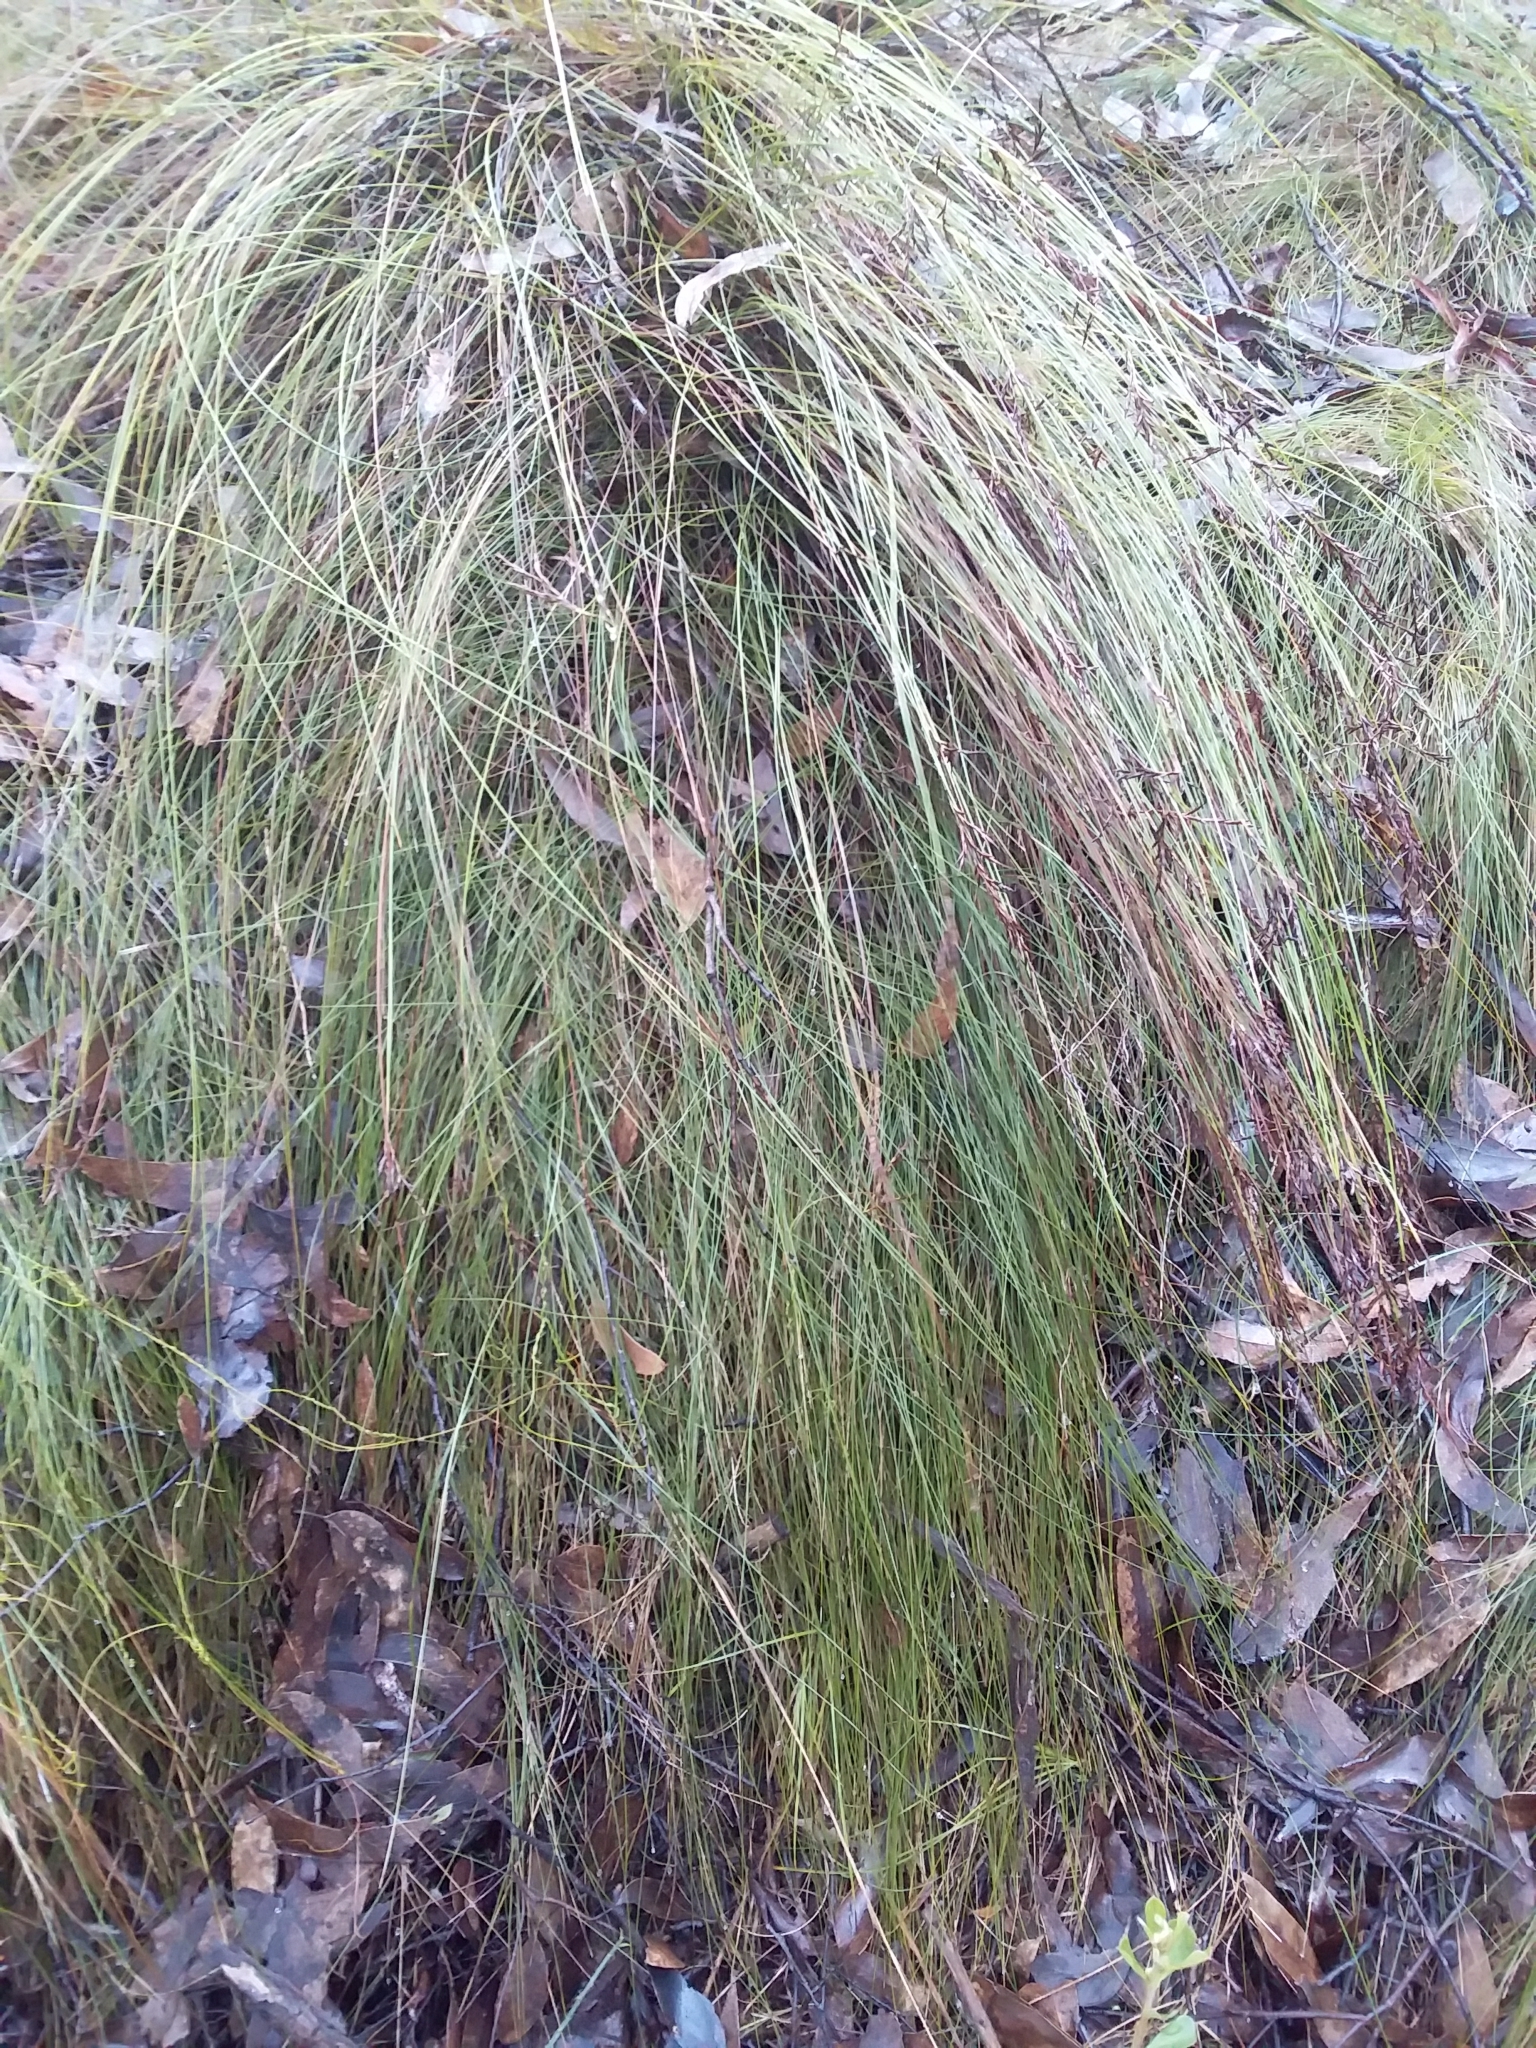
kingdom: Plantae
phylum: Tracheophyta
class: Liliopsida
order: Poales
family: Cyperaceae
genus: Lepidosperma
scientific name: Lepidosperma semiteres
